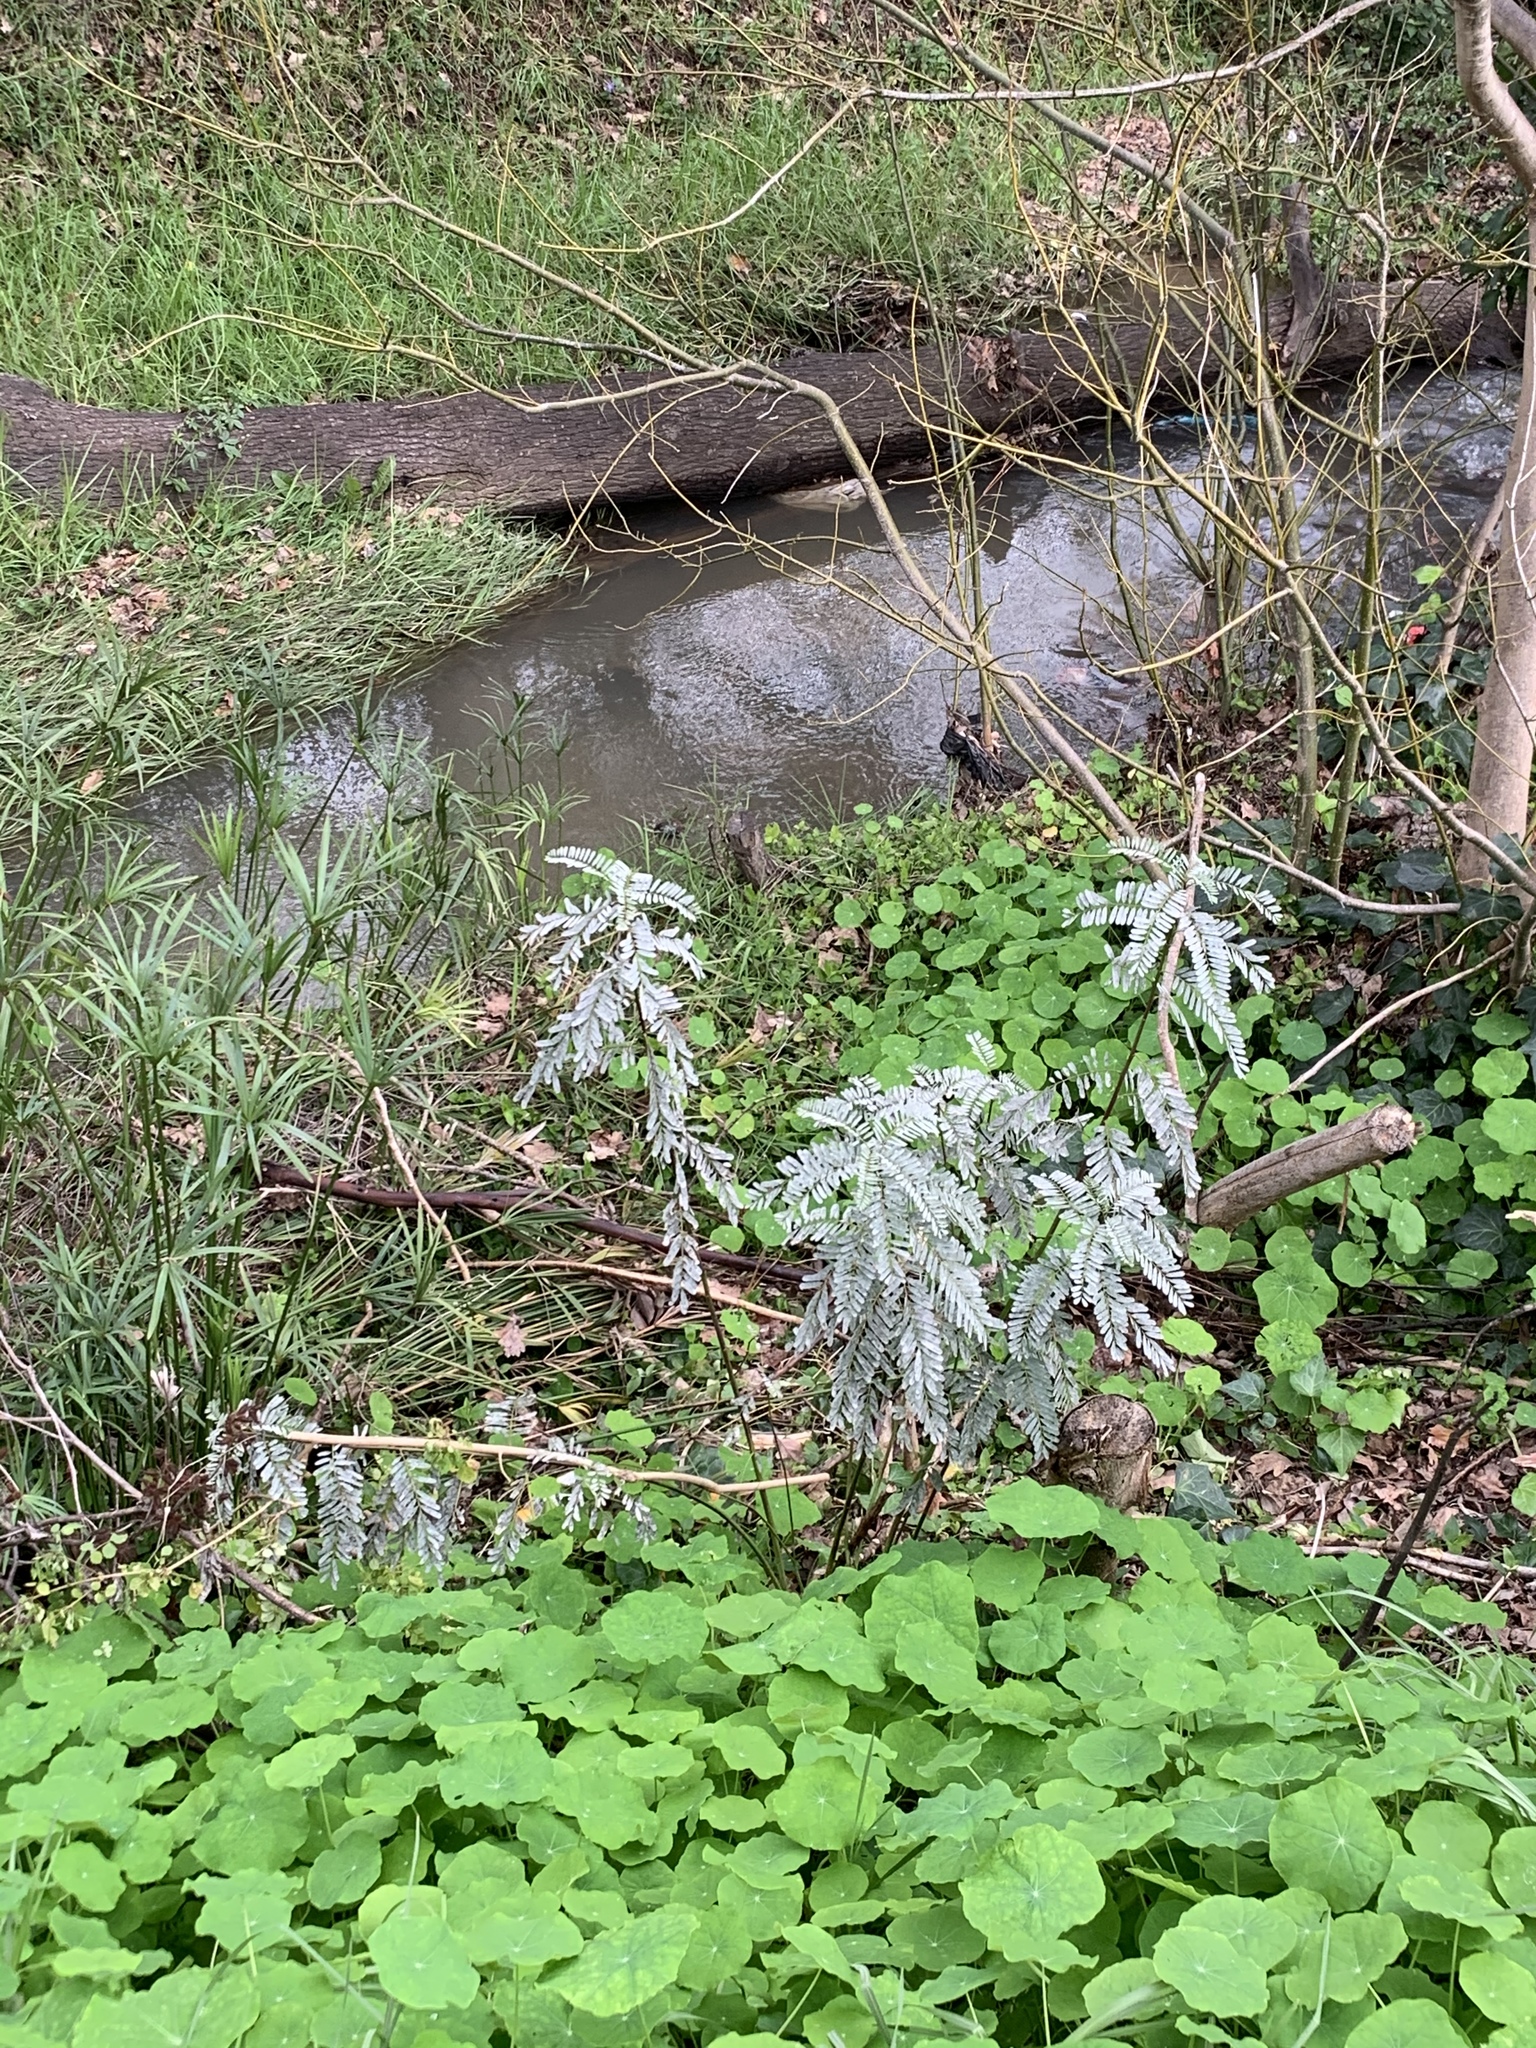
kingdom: Plantae
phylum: Tracheophyta
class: Magnoliopsida
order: Fabales
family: Fabaceae
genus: Sesbania
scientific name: Sesbania punicea
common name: Rattlebox
